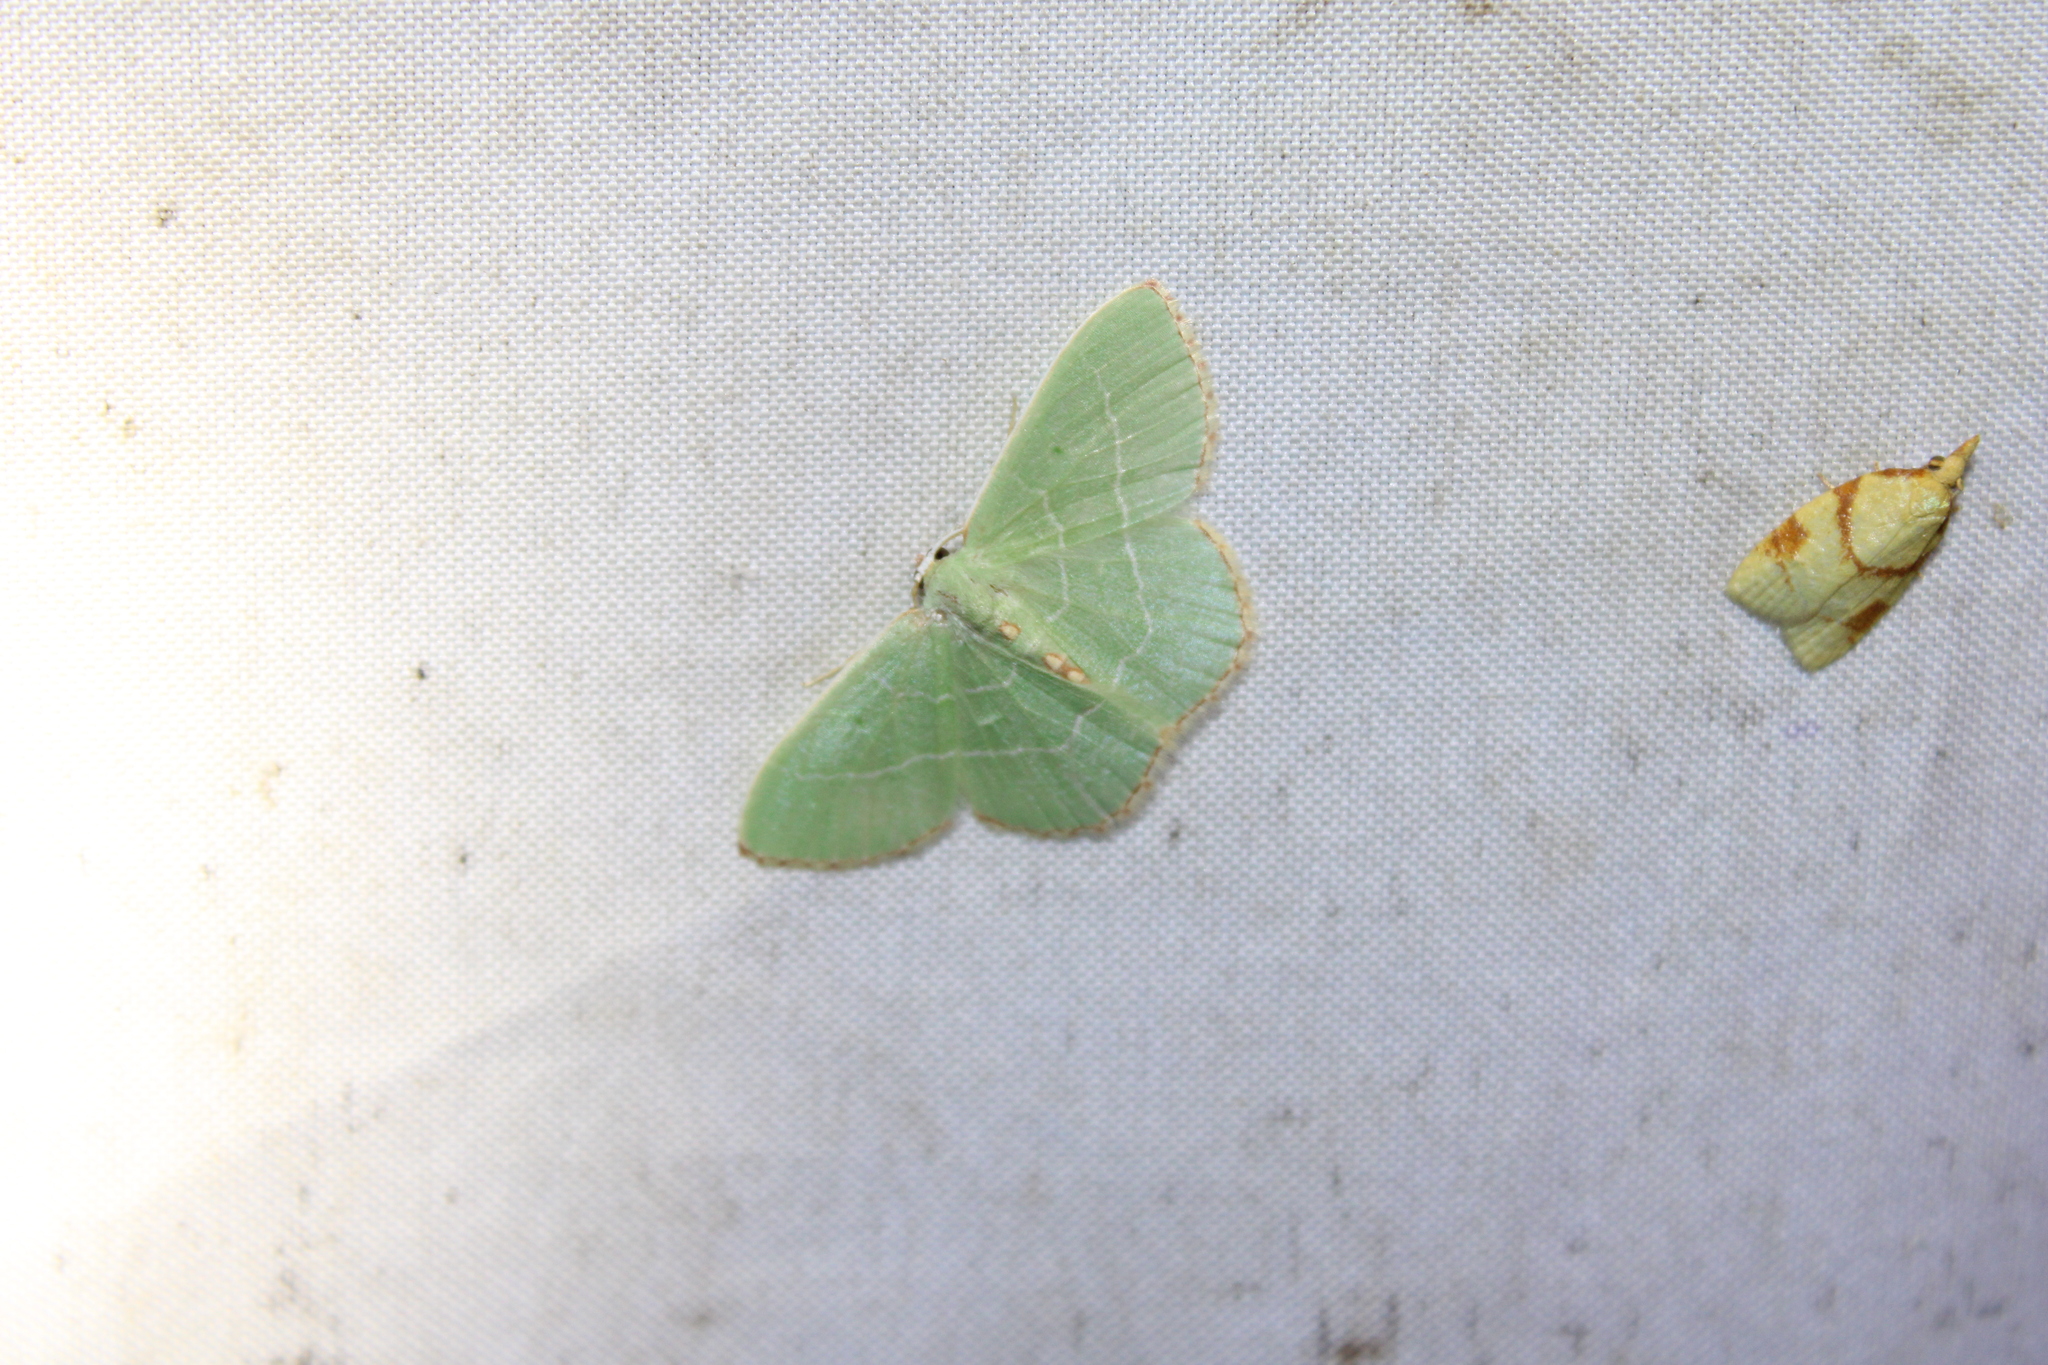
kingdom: Animalia
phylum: Arthropoda
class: Insecta
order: Lepidoptera
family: Geometridae
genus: Nemoria
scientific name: Nemoria bistriaria
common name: Red-fringed emerald
